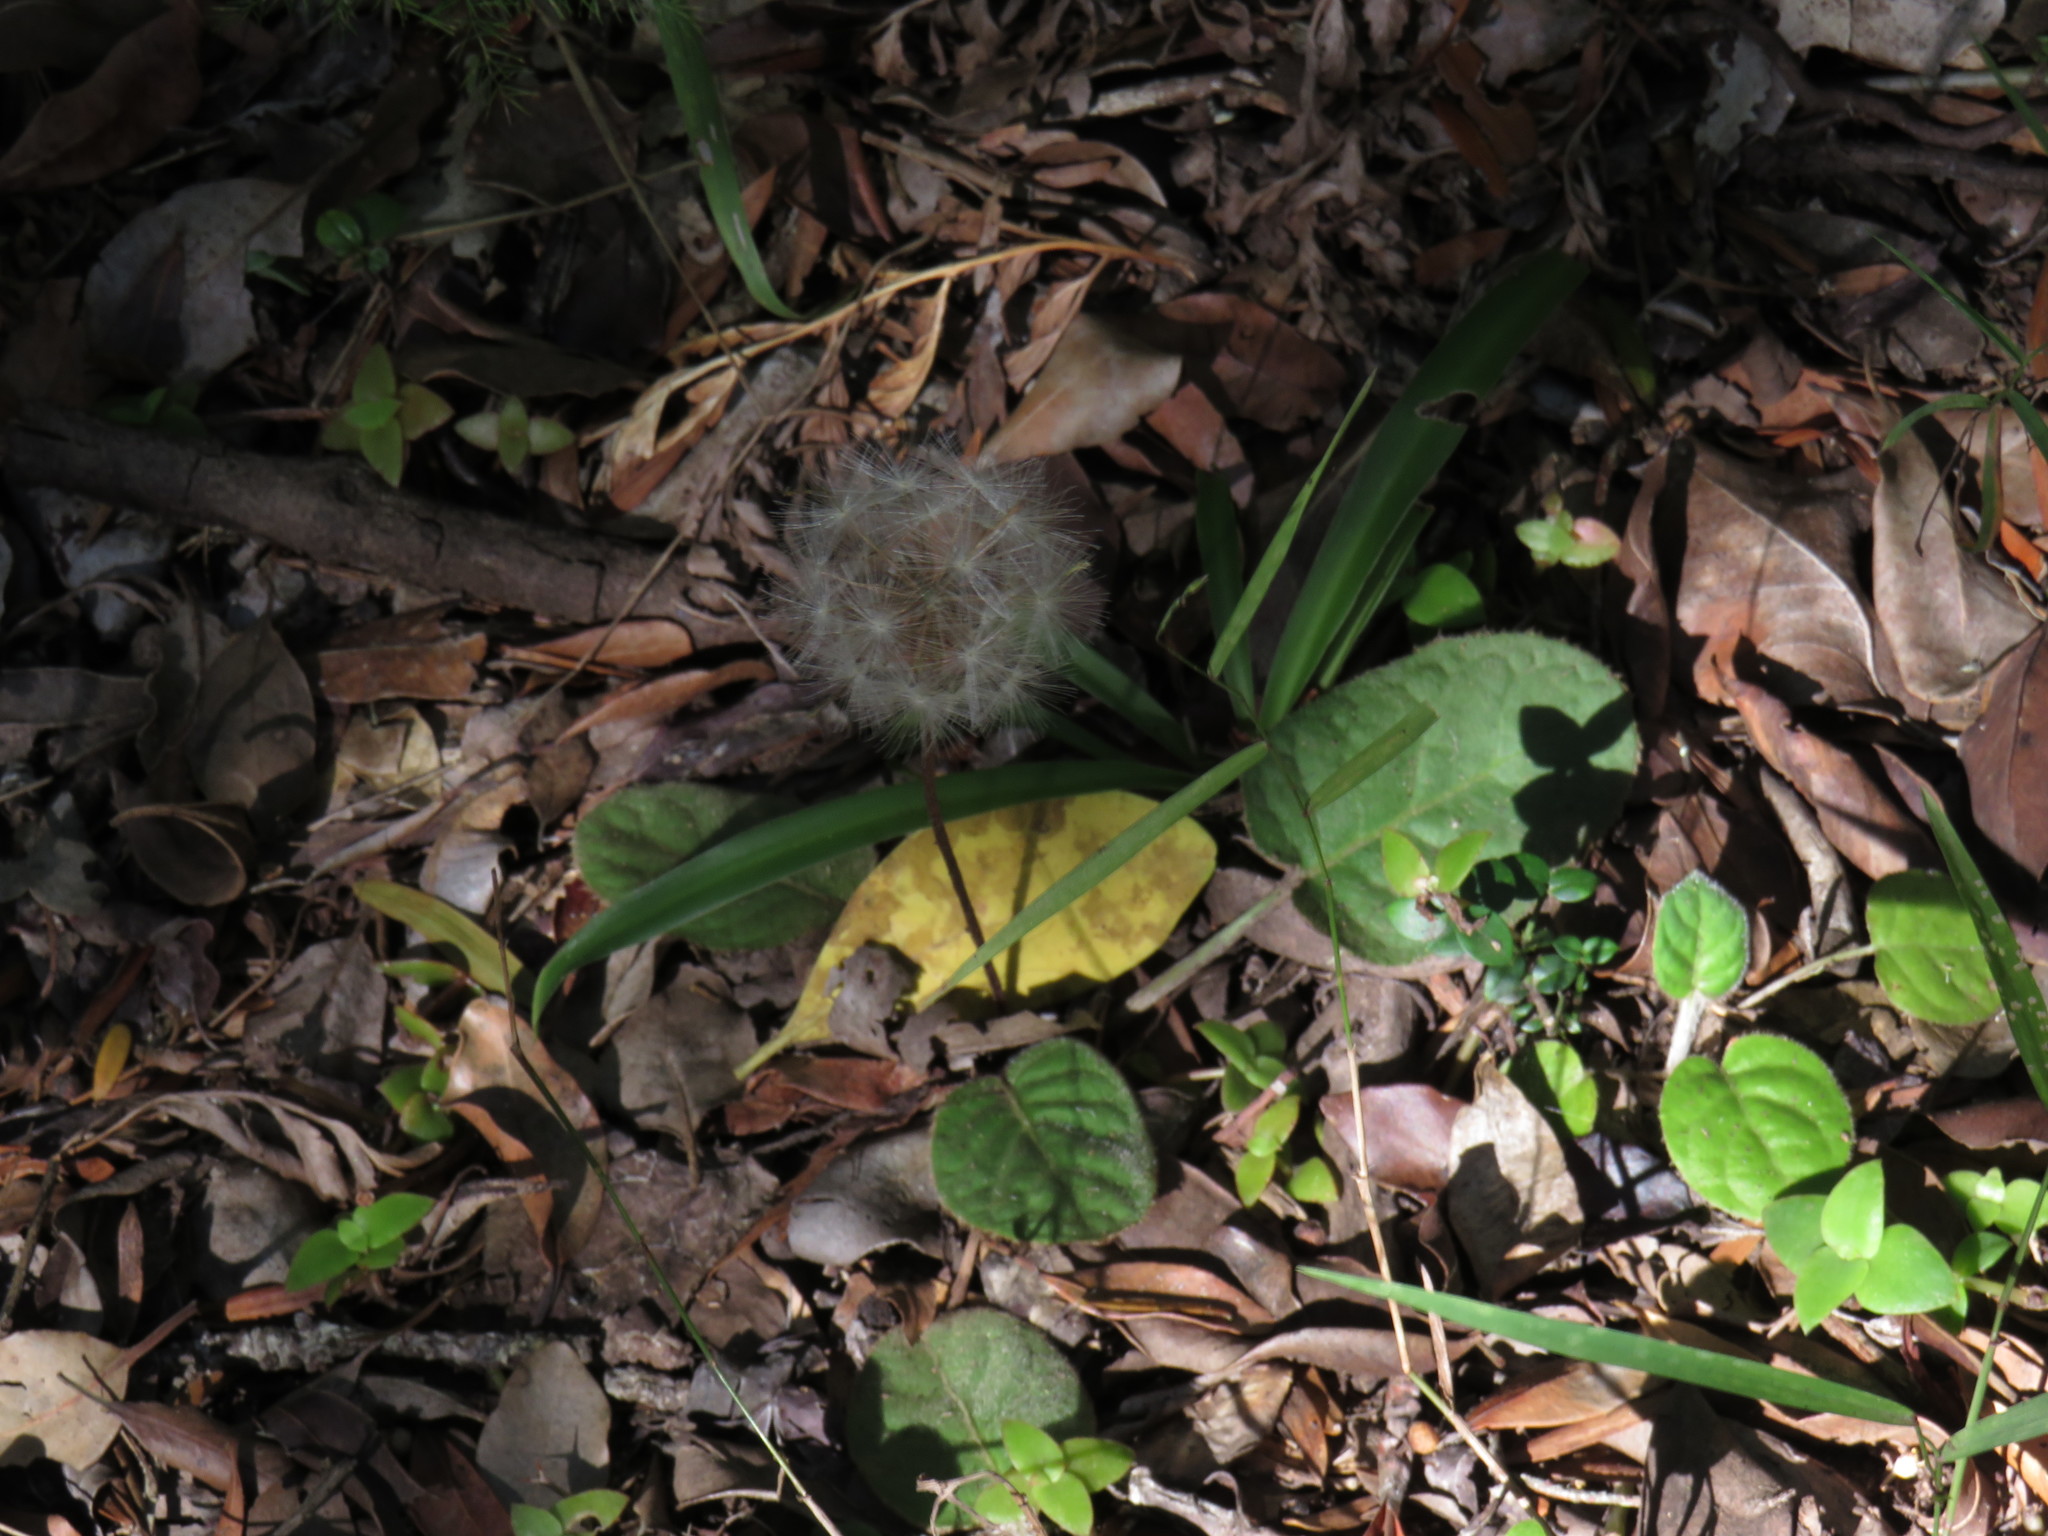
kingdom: Plantae
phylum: Tracheophyta
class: Magnoliopsida
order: Asterales
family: Asteraceae
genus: Piloselloides
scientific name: Piloselloides cordata
